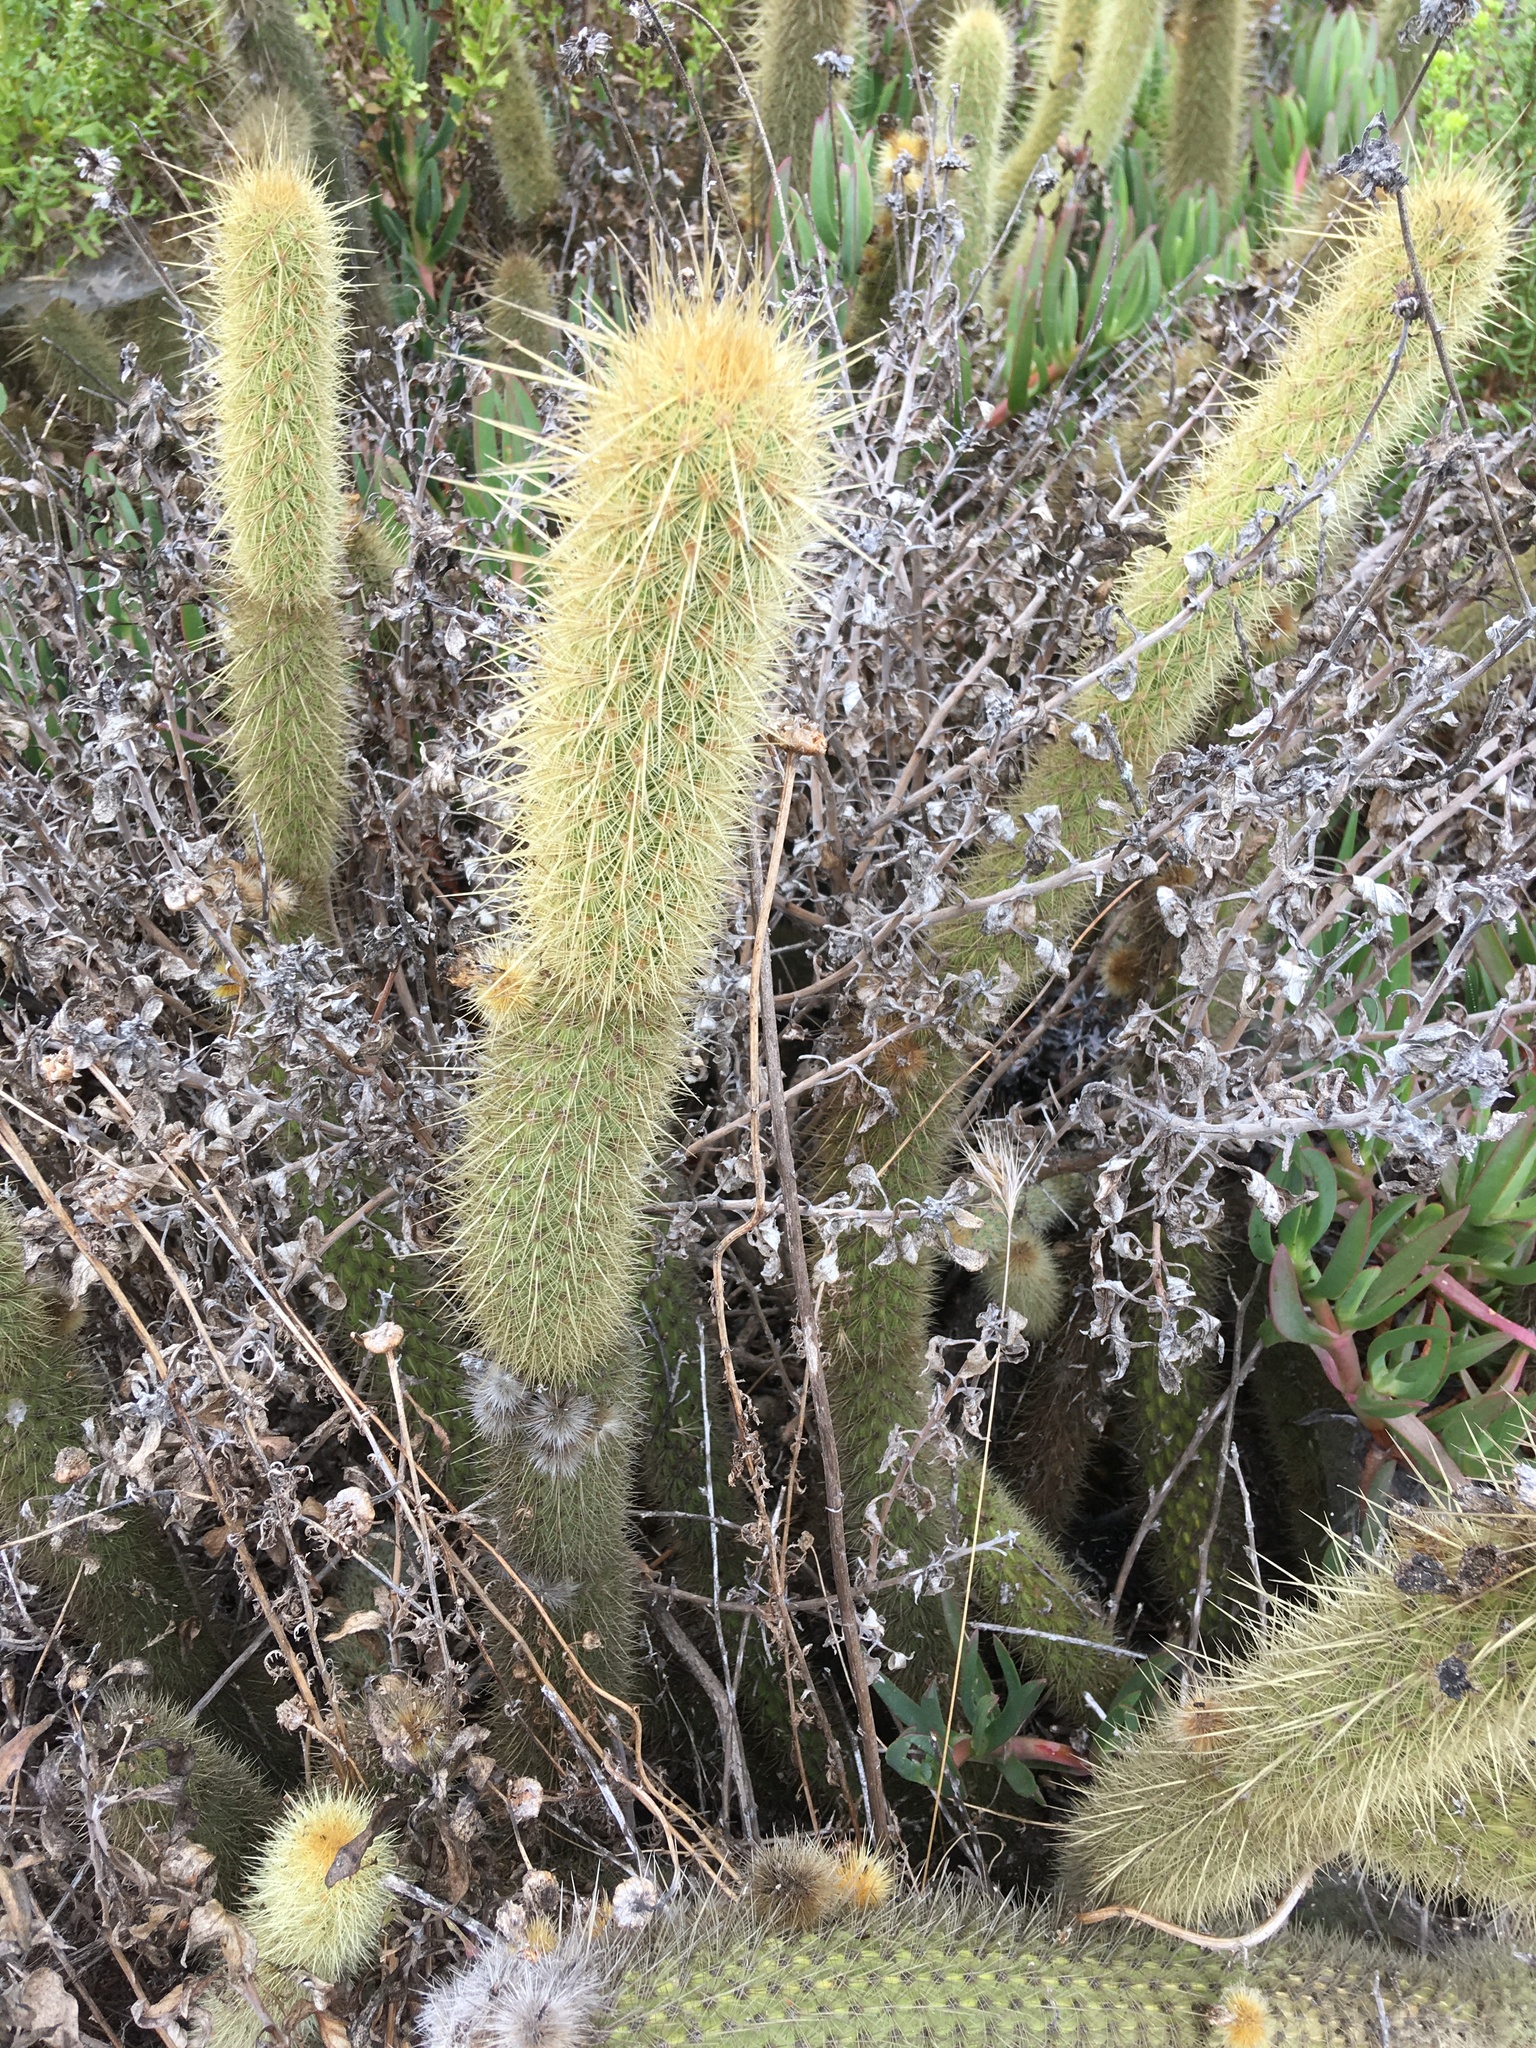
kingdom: Plantae
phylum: Tracheophyta
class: Magnoliopsida
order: Caryophyllales
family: Cactaceae
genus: Bergerocactus
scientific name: Bergerocactus emoryi
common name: Golden snakecactus
